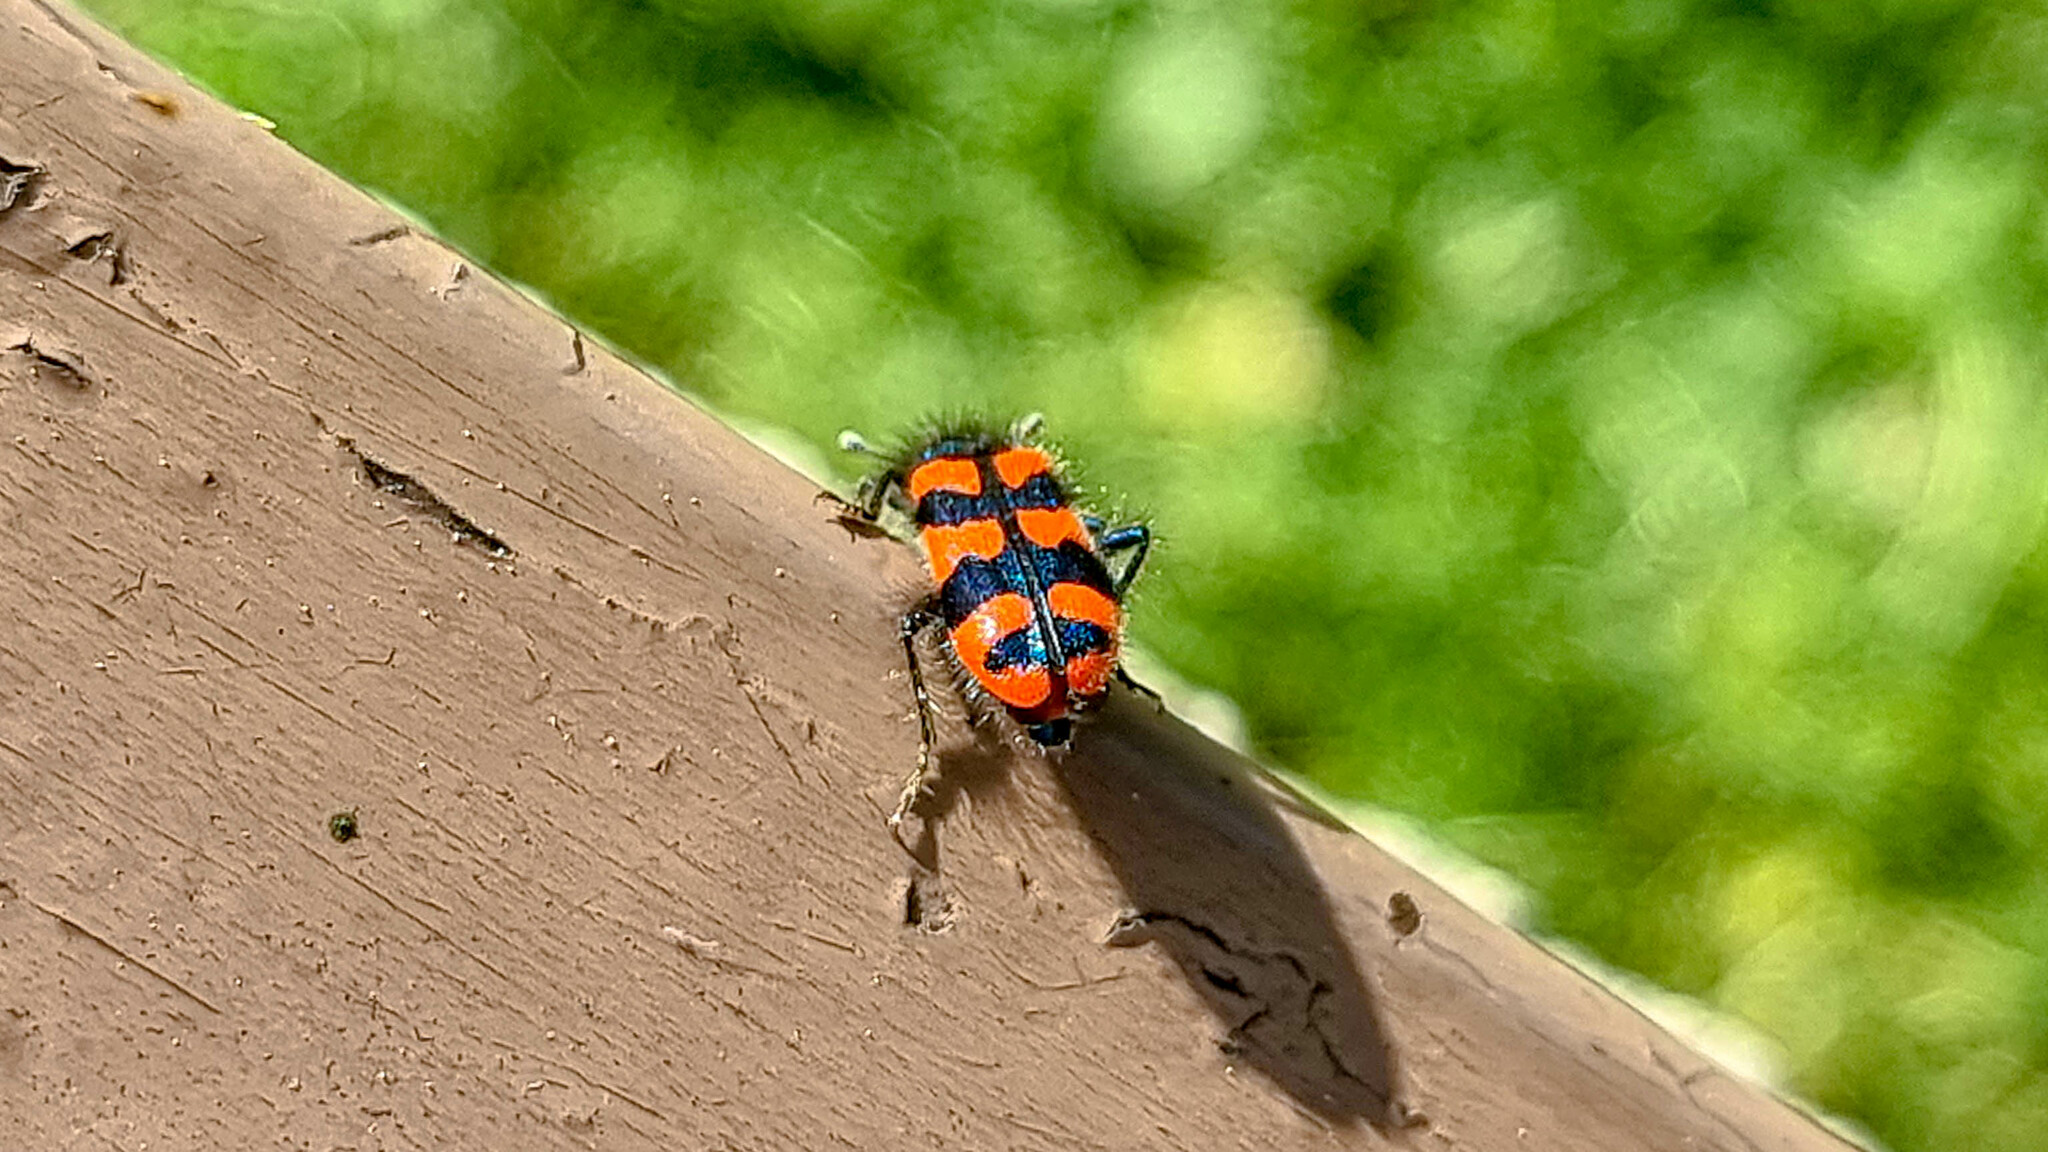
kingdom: Animalia
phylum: Arthropoda
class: Insecta
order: Coleoptera
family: Cleridae
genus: Trichodes
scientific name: Trichodes alvearius
